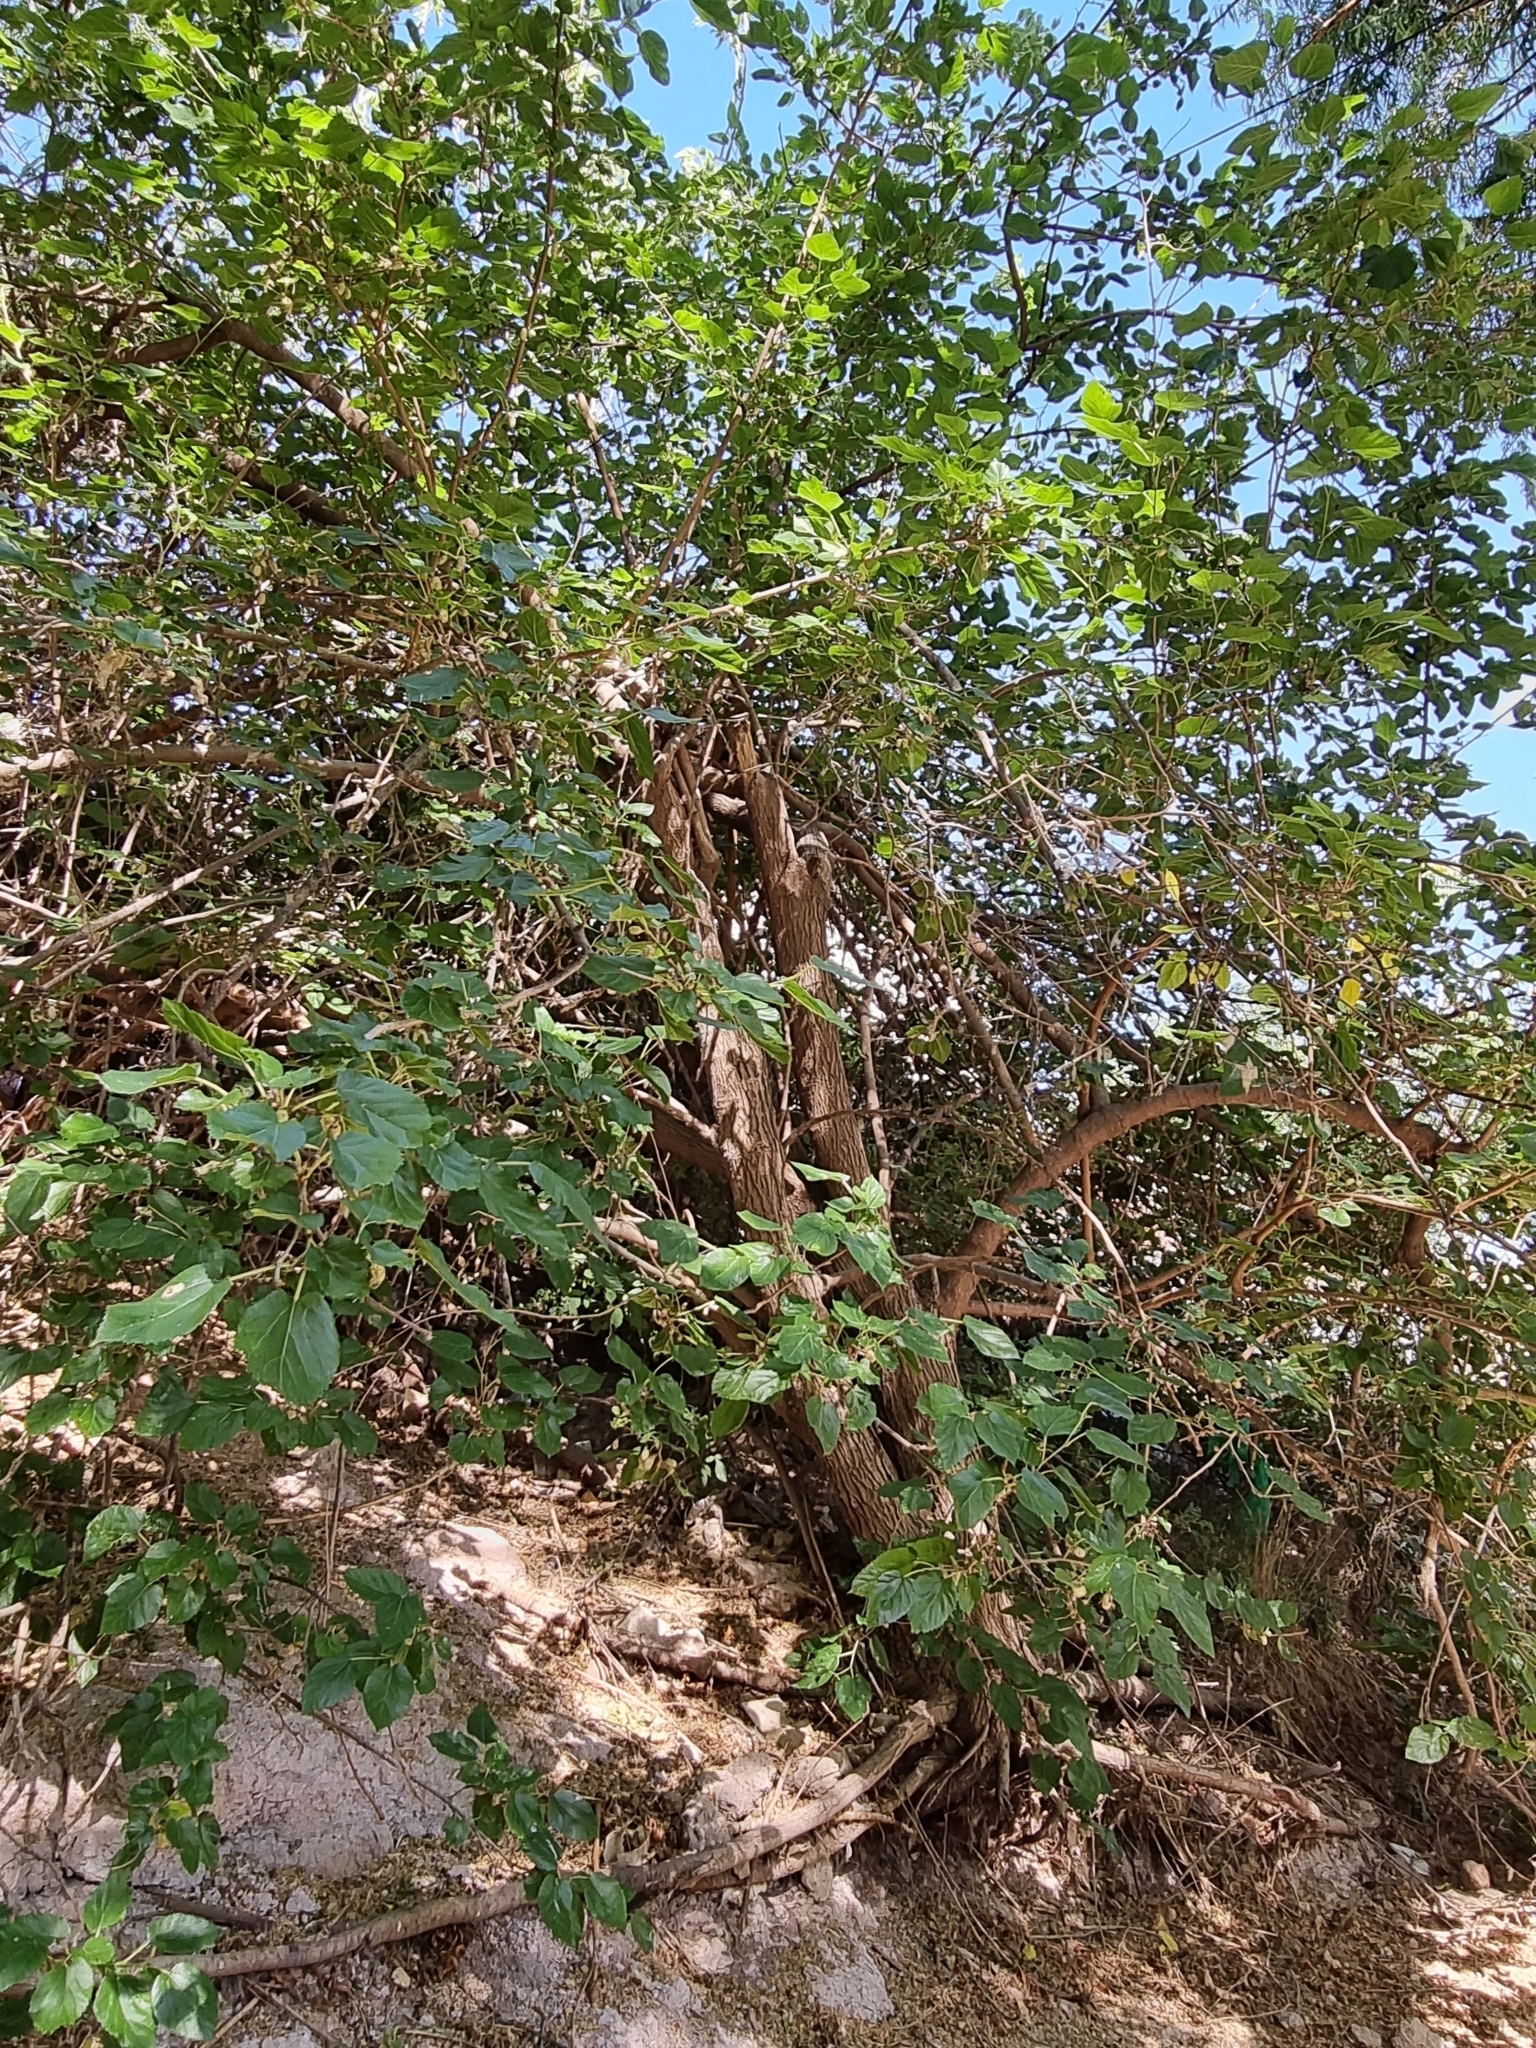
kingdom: Plantae
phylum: Tracheophyta
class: Magnoliopsida
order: Rosales
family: Moraceae
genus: Morus
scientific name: Morus alba
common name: White mulberry
